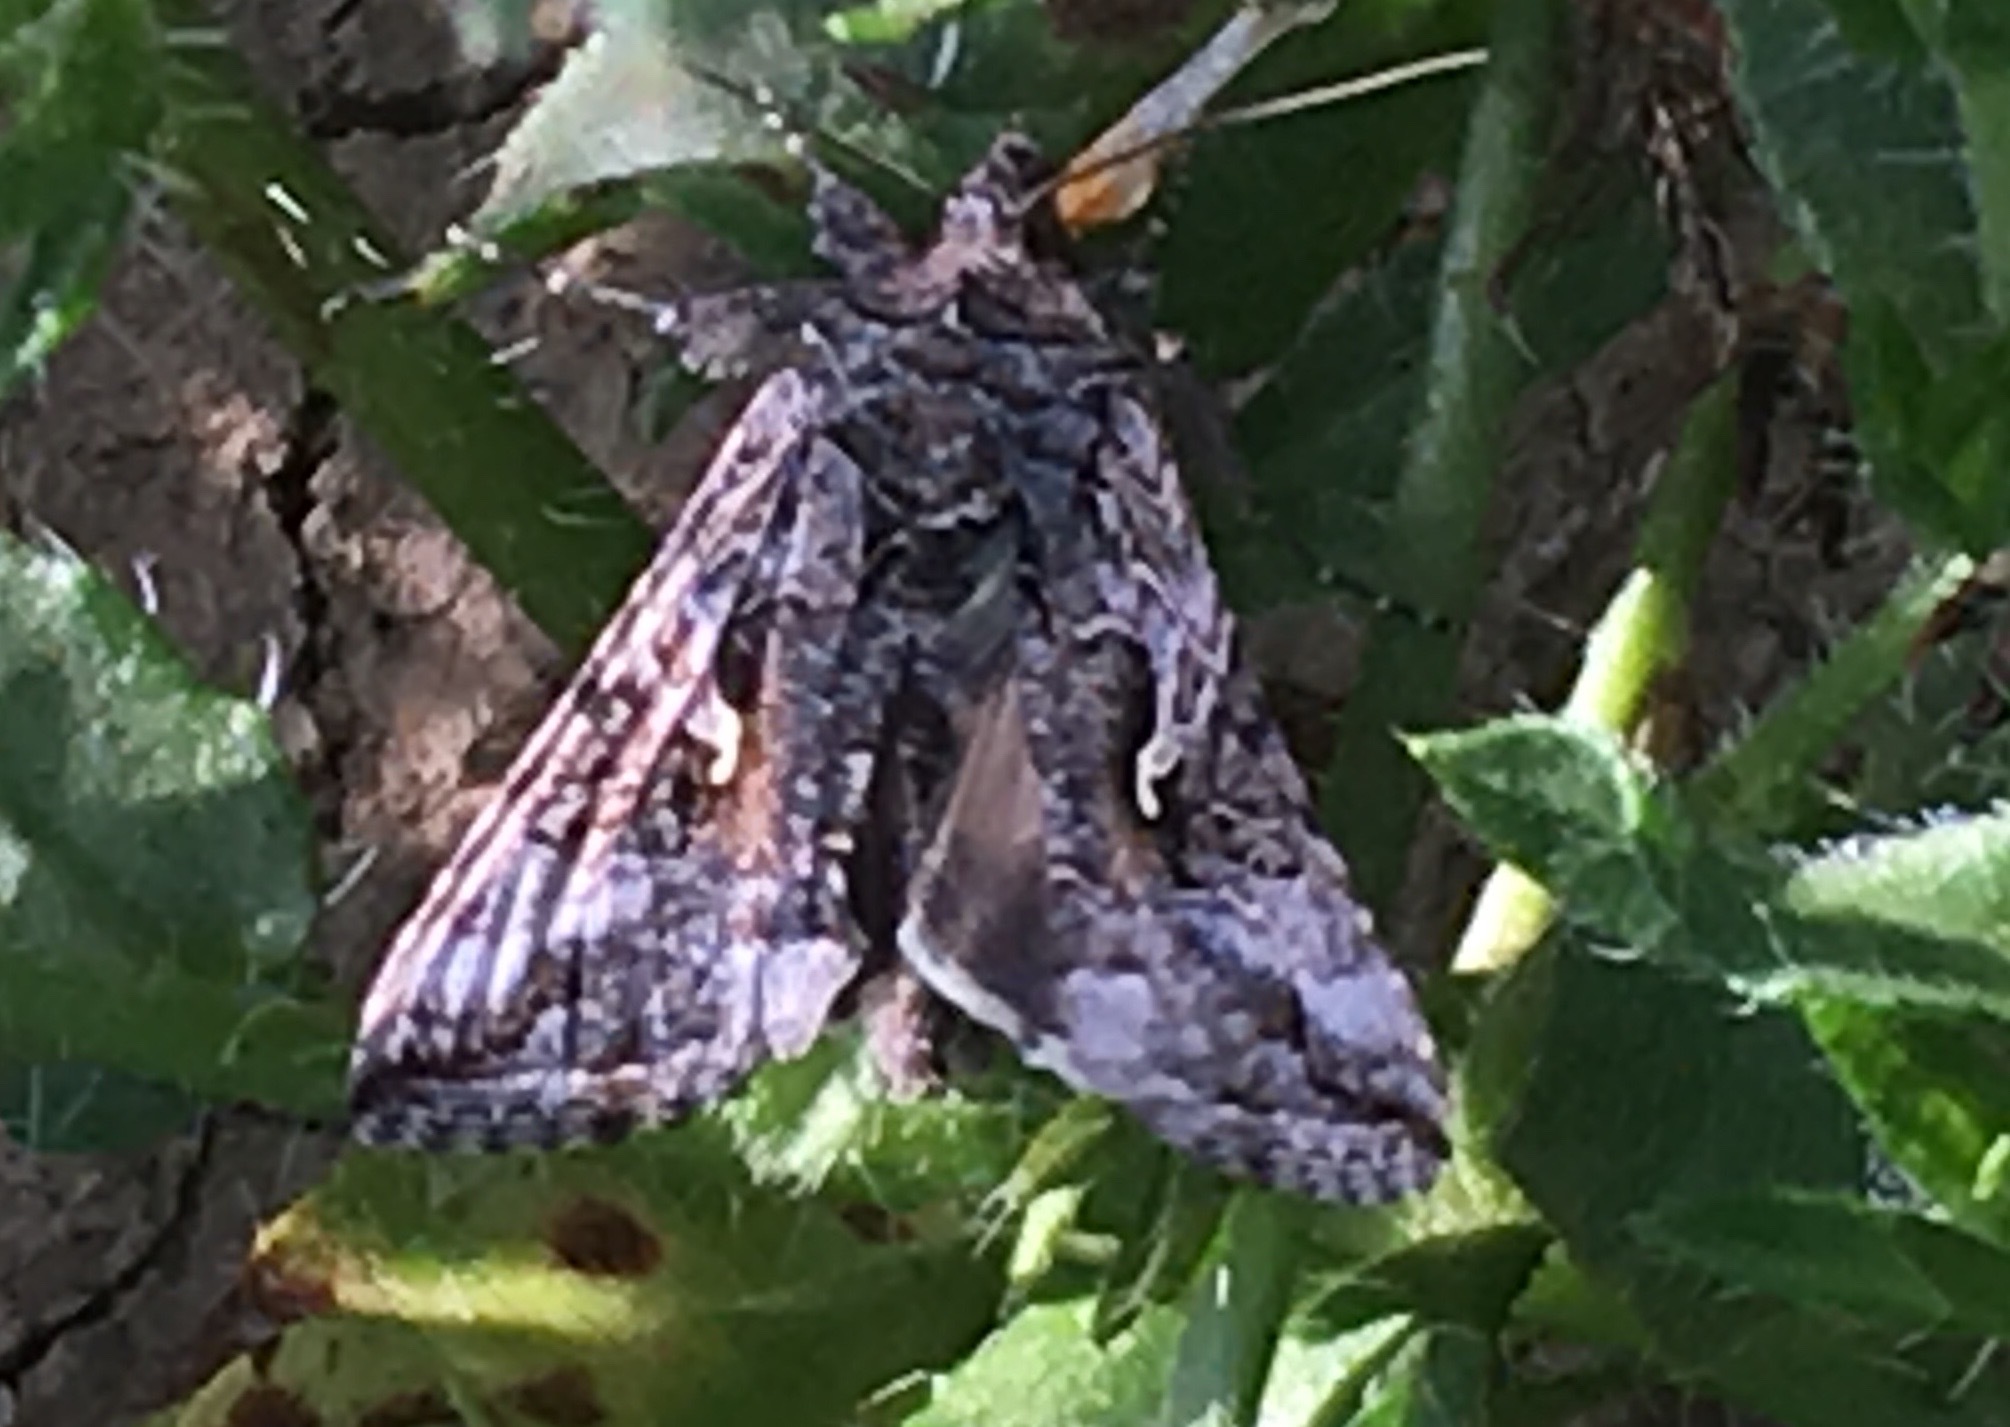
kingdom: Animalia
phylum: Arthropoda
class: Insecta
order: Lepidoptera
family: Noctuidae
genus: Autographa
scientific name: Autographa californica
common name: Alfalfa looper
